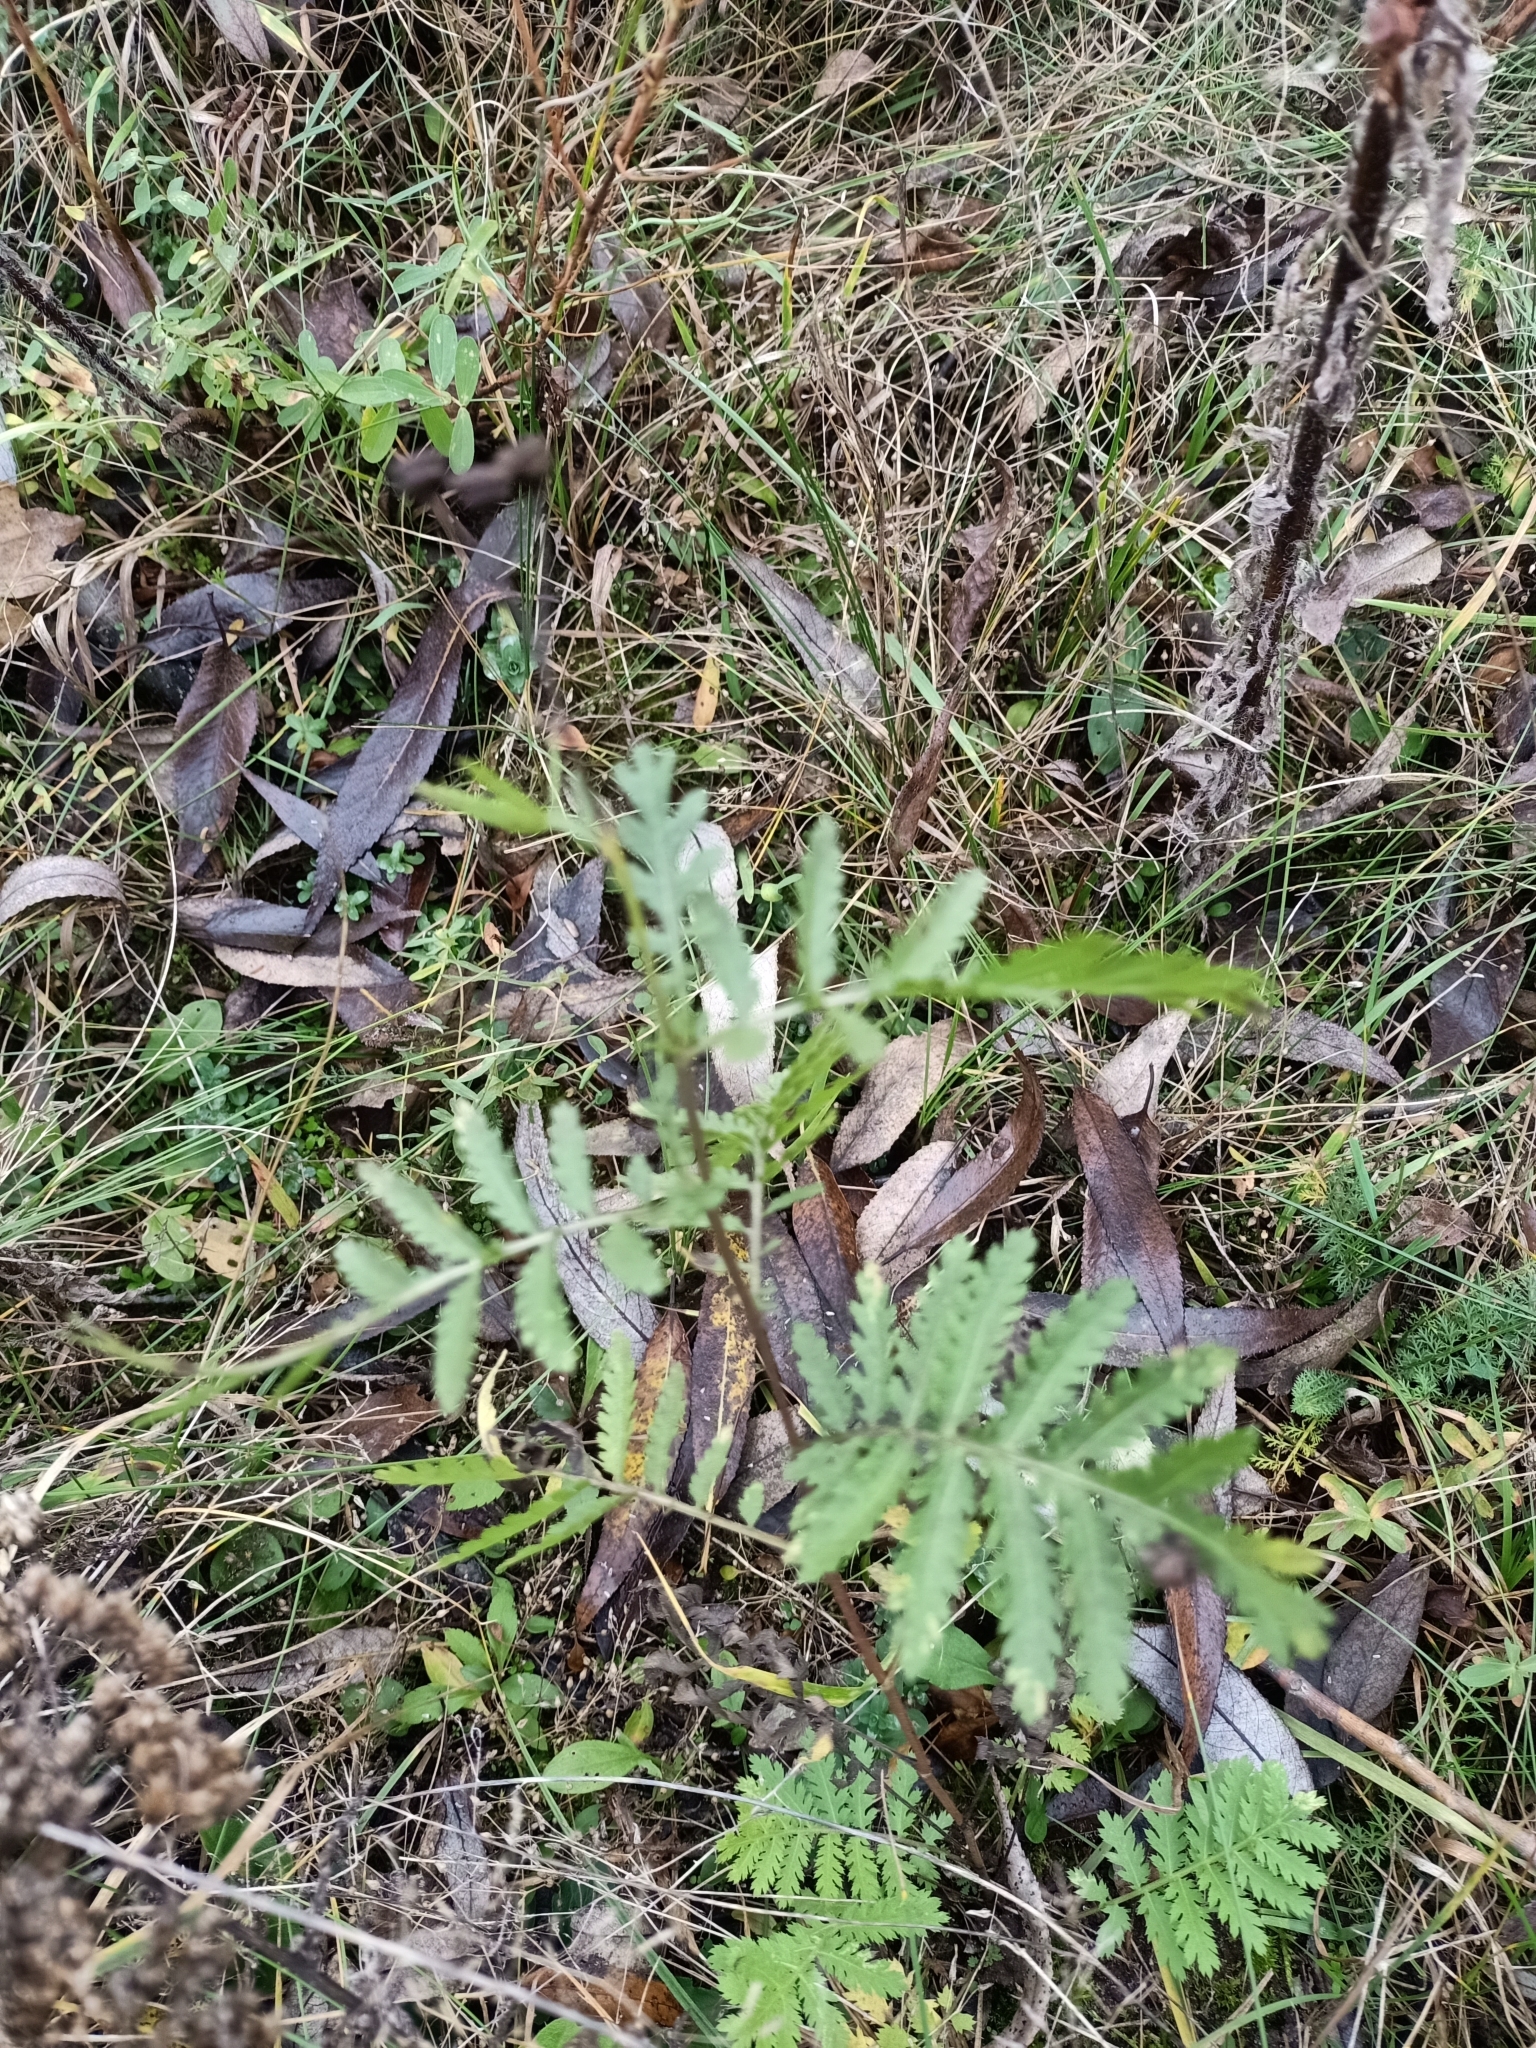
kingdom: Plantae
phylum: Tracheophyta
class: Magnoliopsida
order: Asterales
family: Asteraceae
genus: Tanacetum
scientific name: Tanacetum vulgare
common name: Common tansy
